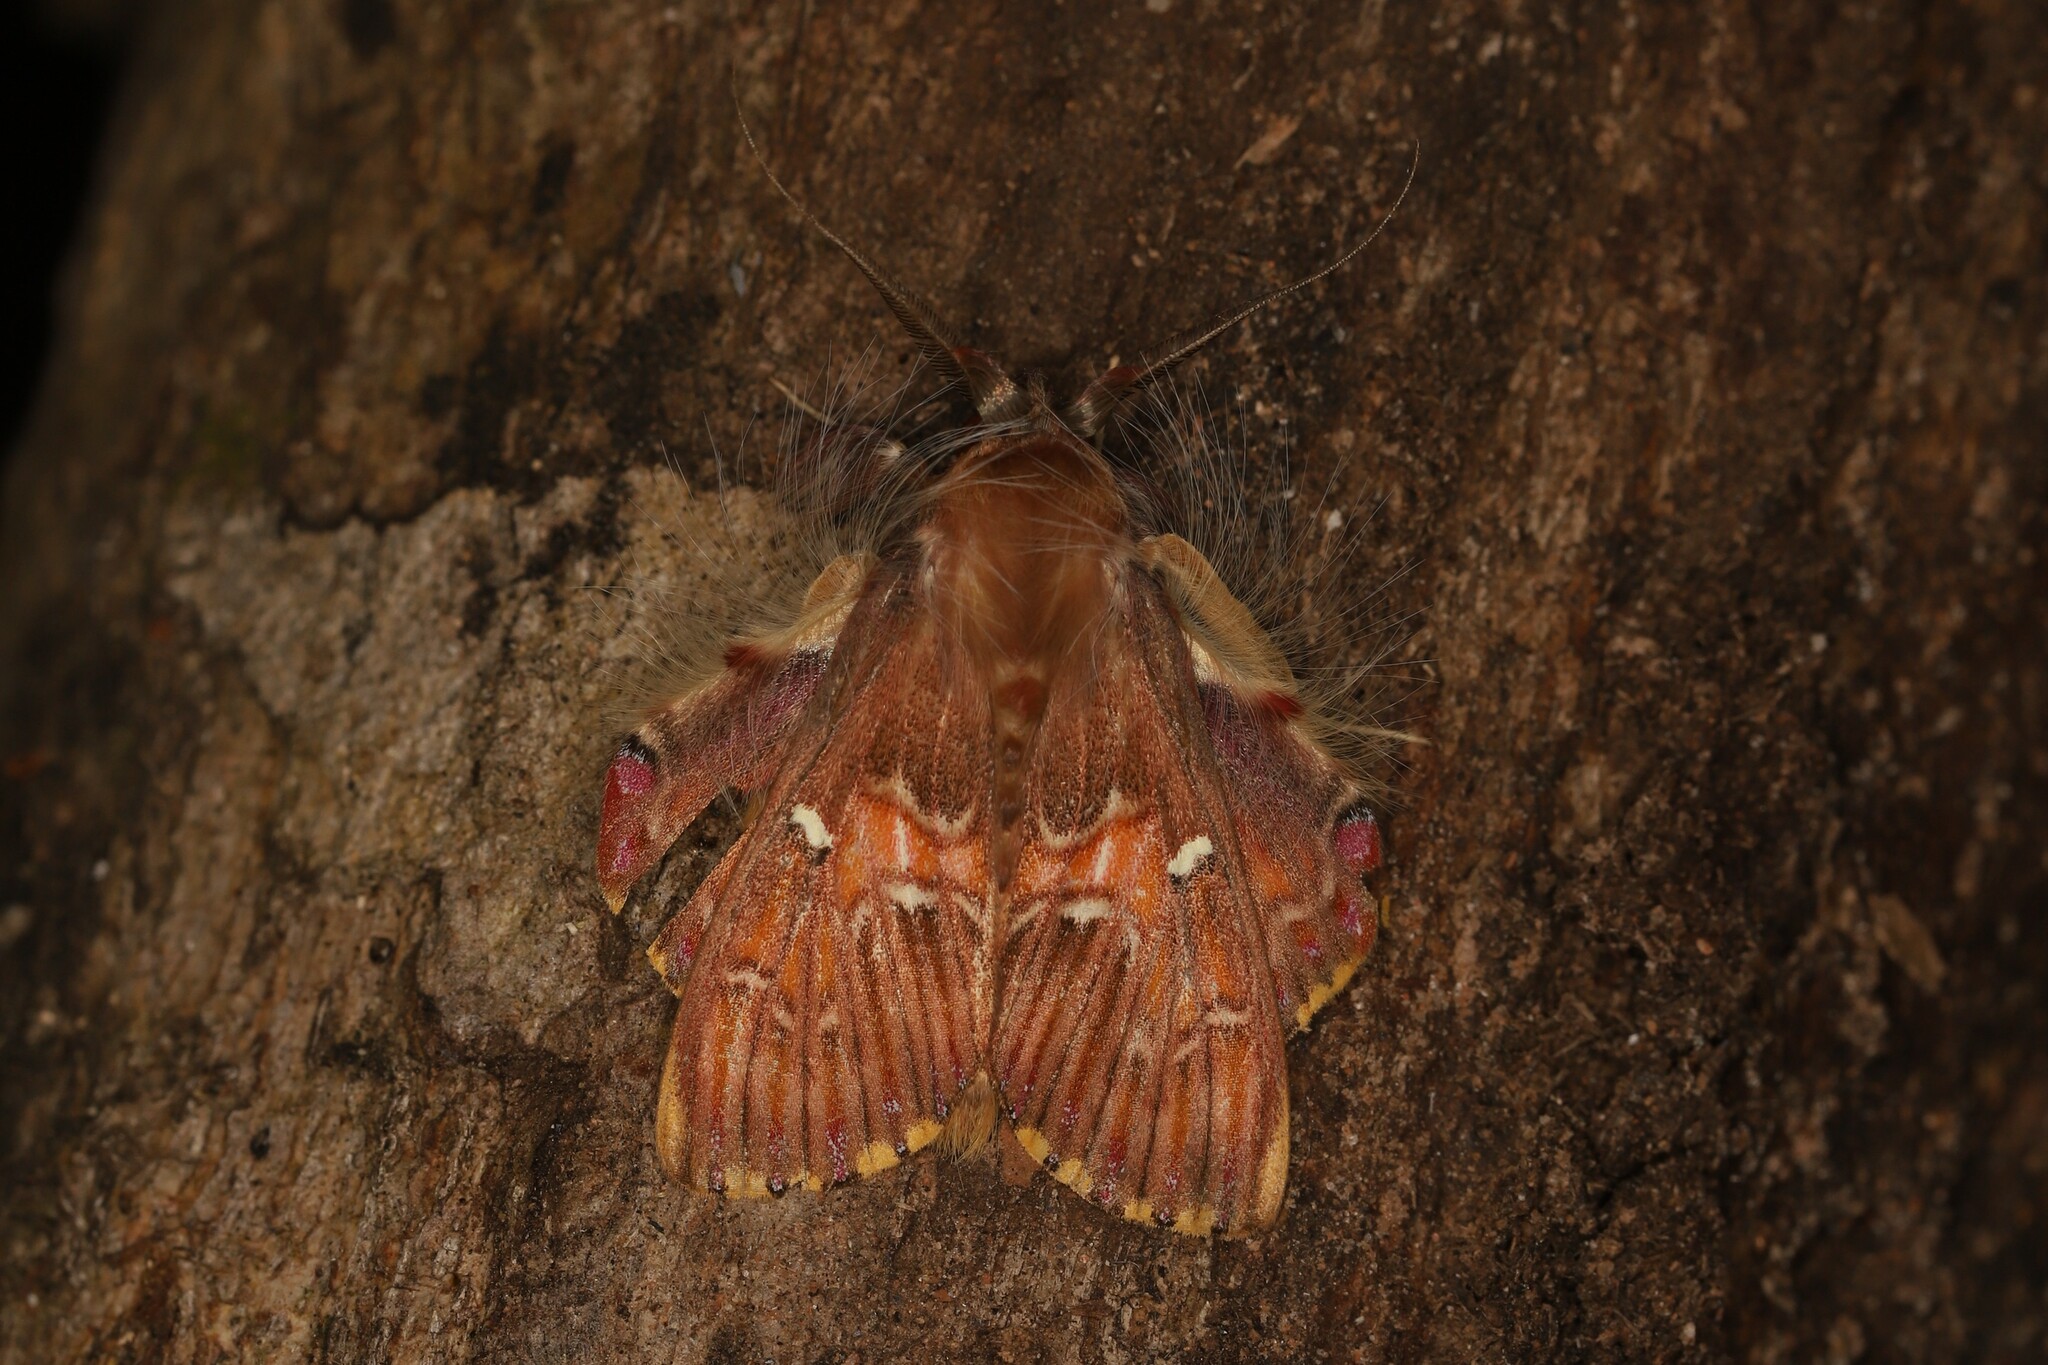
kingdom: Animalia
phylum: Arthropoda
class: Insecta
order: Lepidoptera
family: Erebidae
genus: Sosxetra
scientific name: Sosxetra grata
